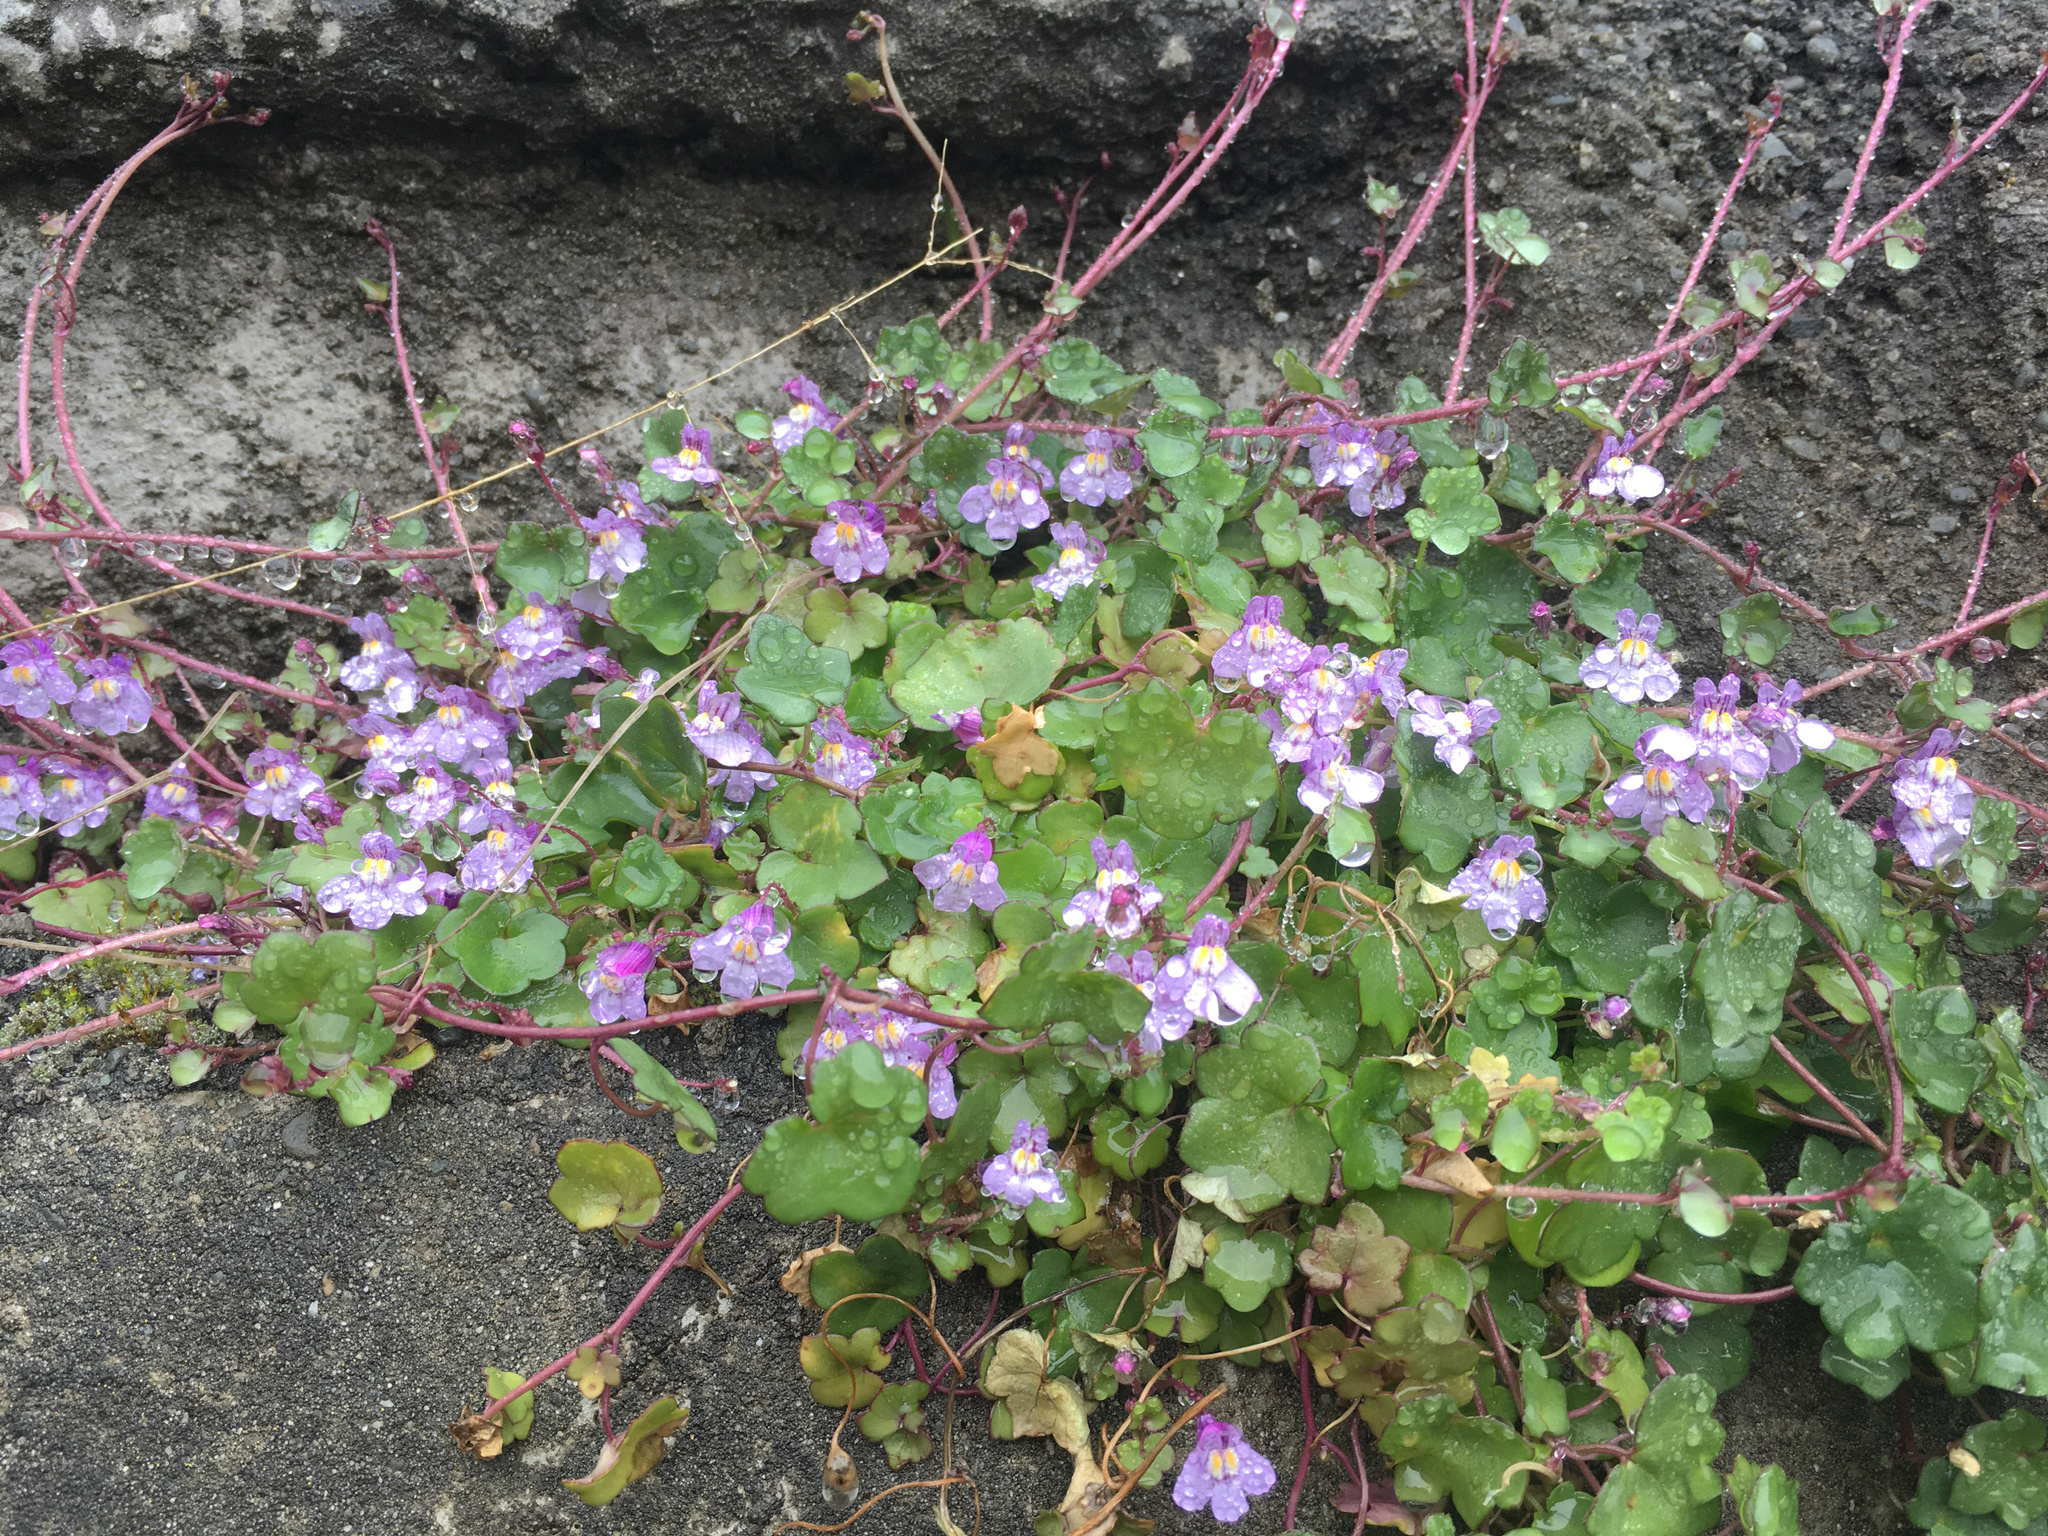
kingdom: Plantae
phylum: Tracheophyta
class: Magnoliopsida
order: Lamiales
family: Plantaginaceae
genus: Cymbalaria
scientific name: Cymbalaria muralis
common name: Ivy-leaved toadflax
